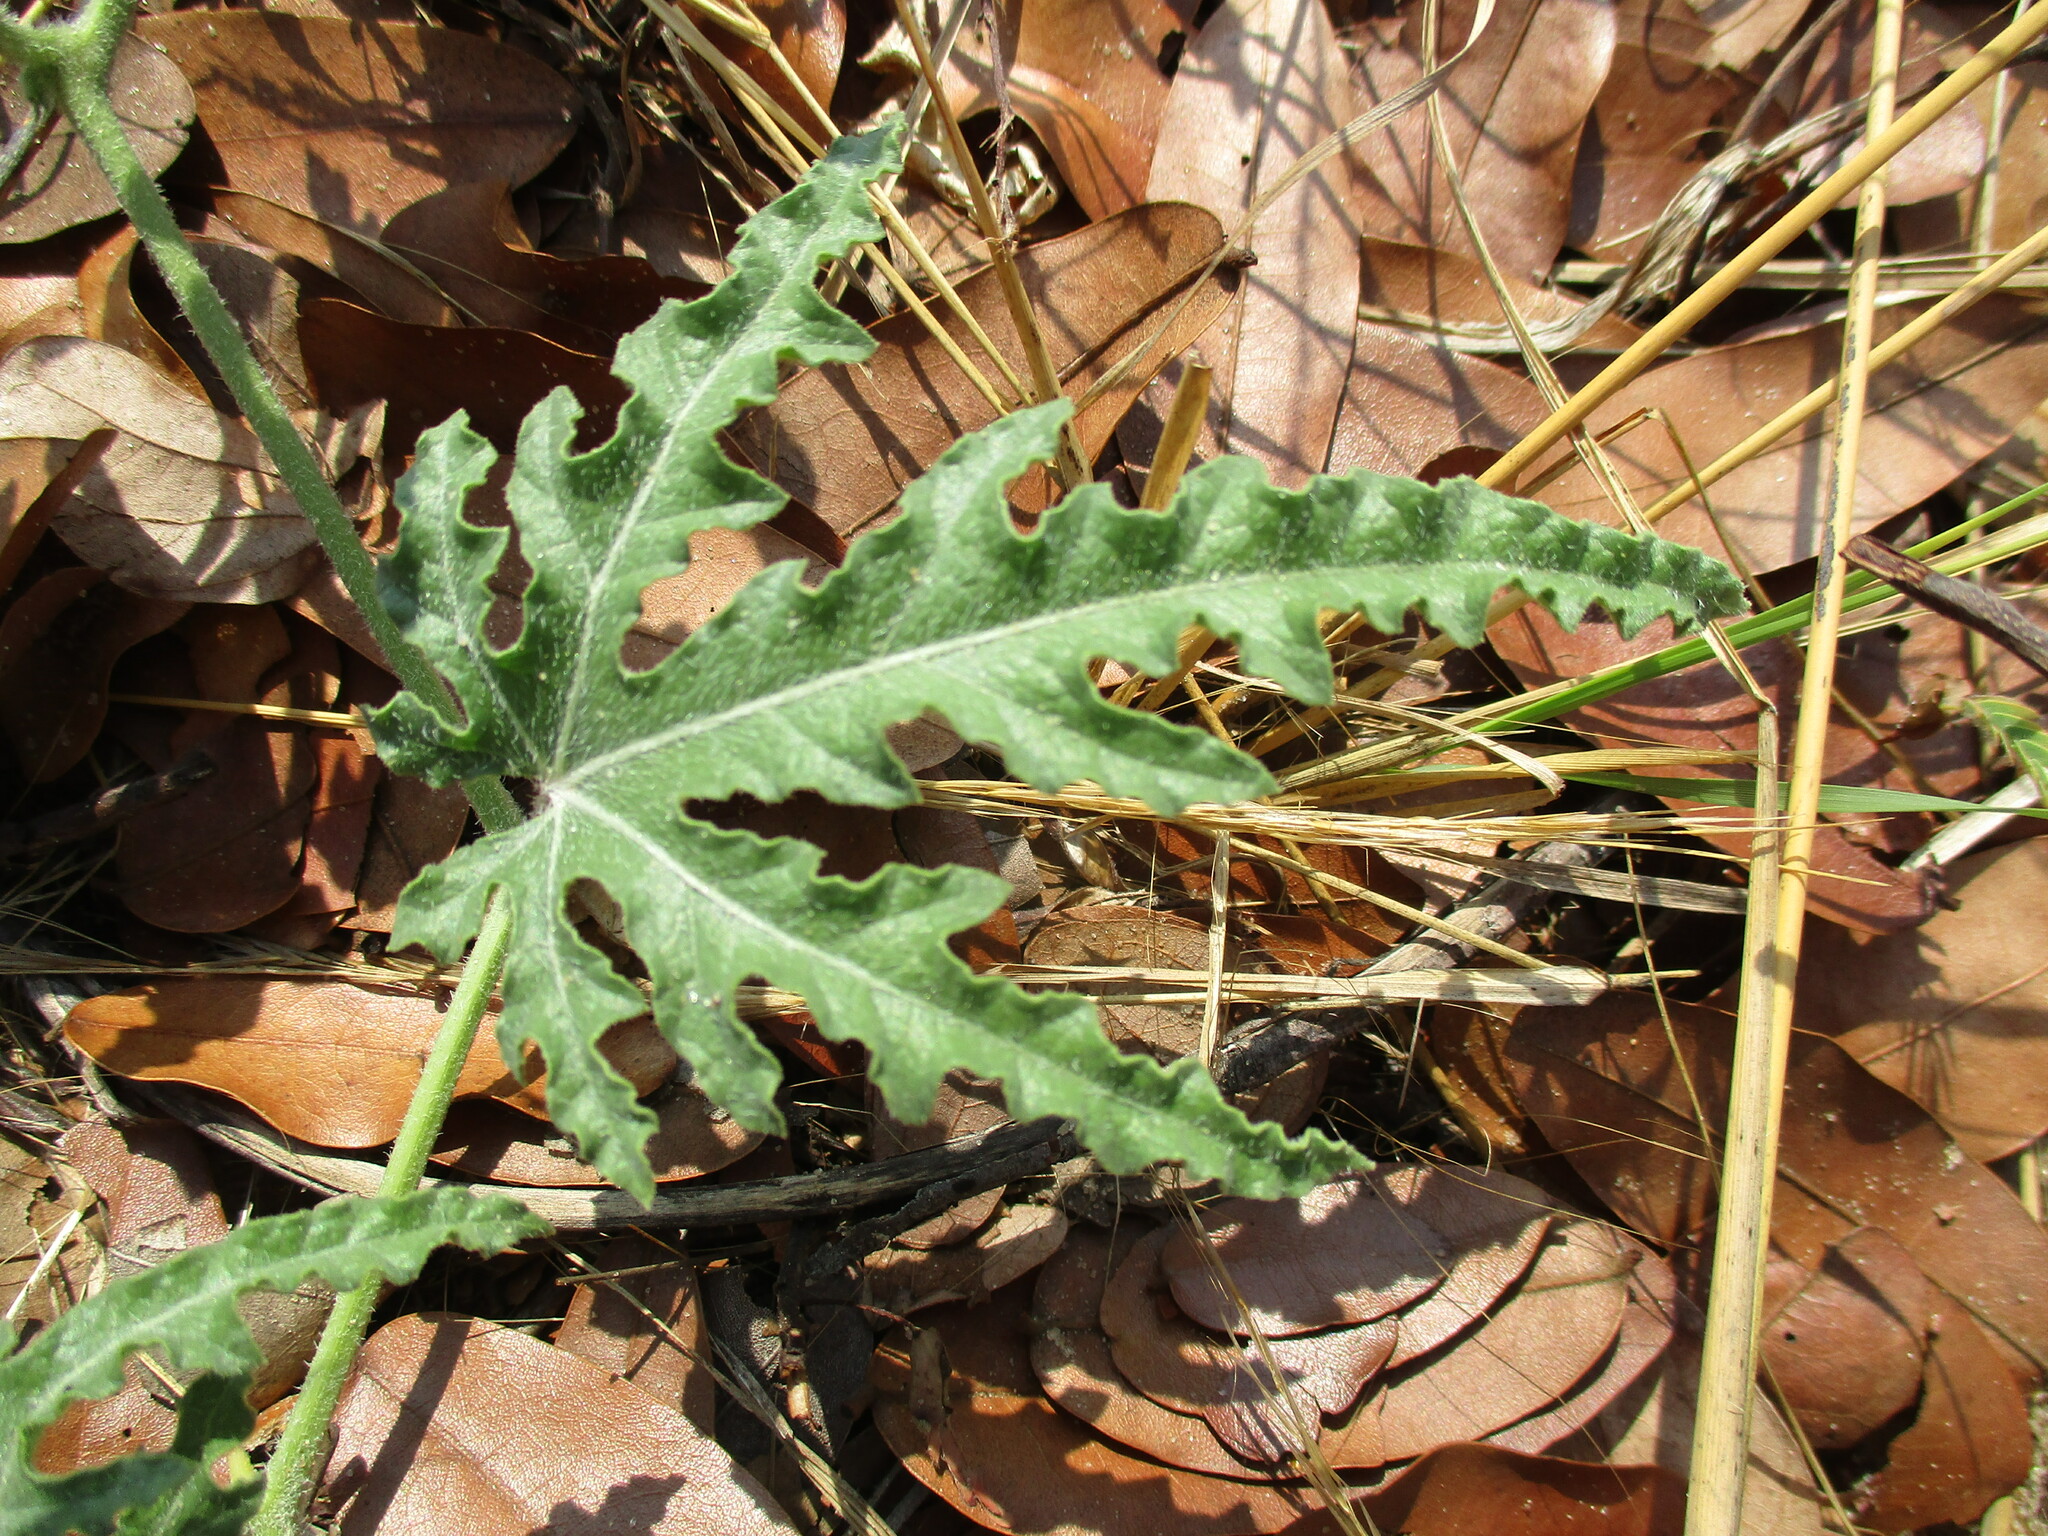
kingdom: Plantae
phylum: Tracheophyta
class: Magnoliopsida
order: Cucurbitales
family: Cucurbitaceae
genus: Citrullus
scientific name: Citrullus naudinianus
